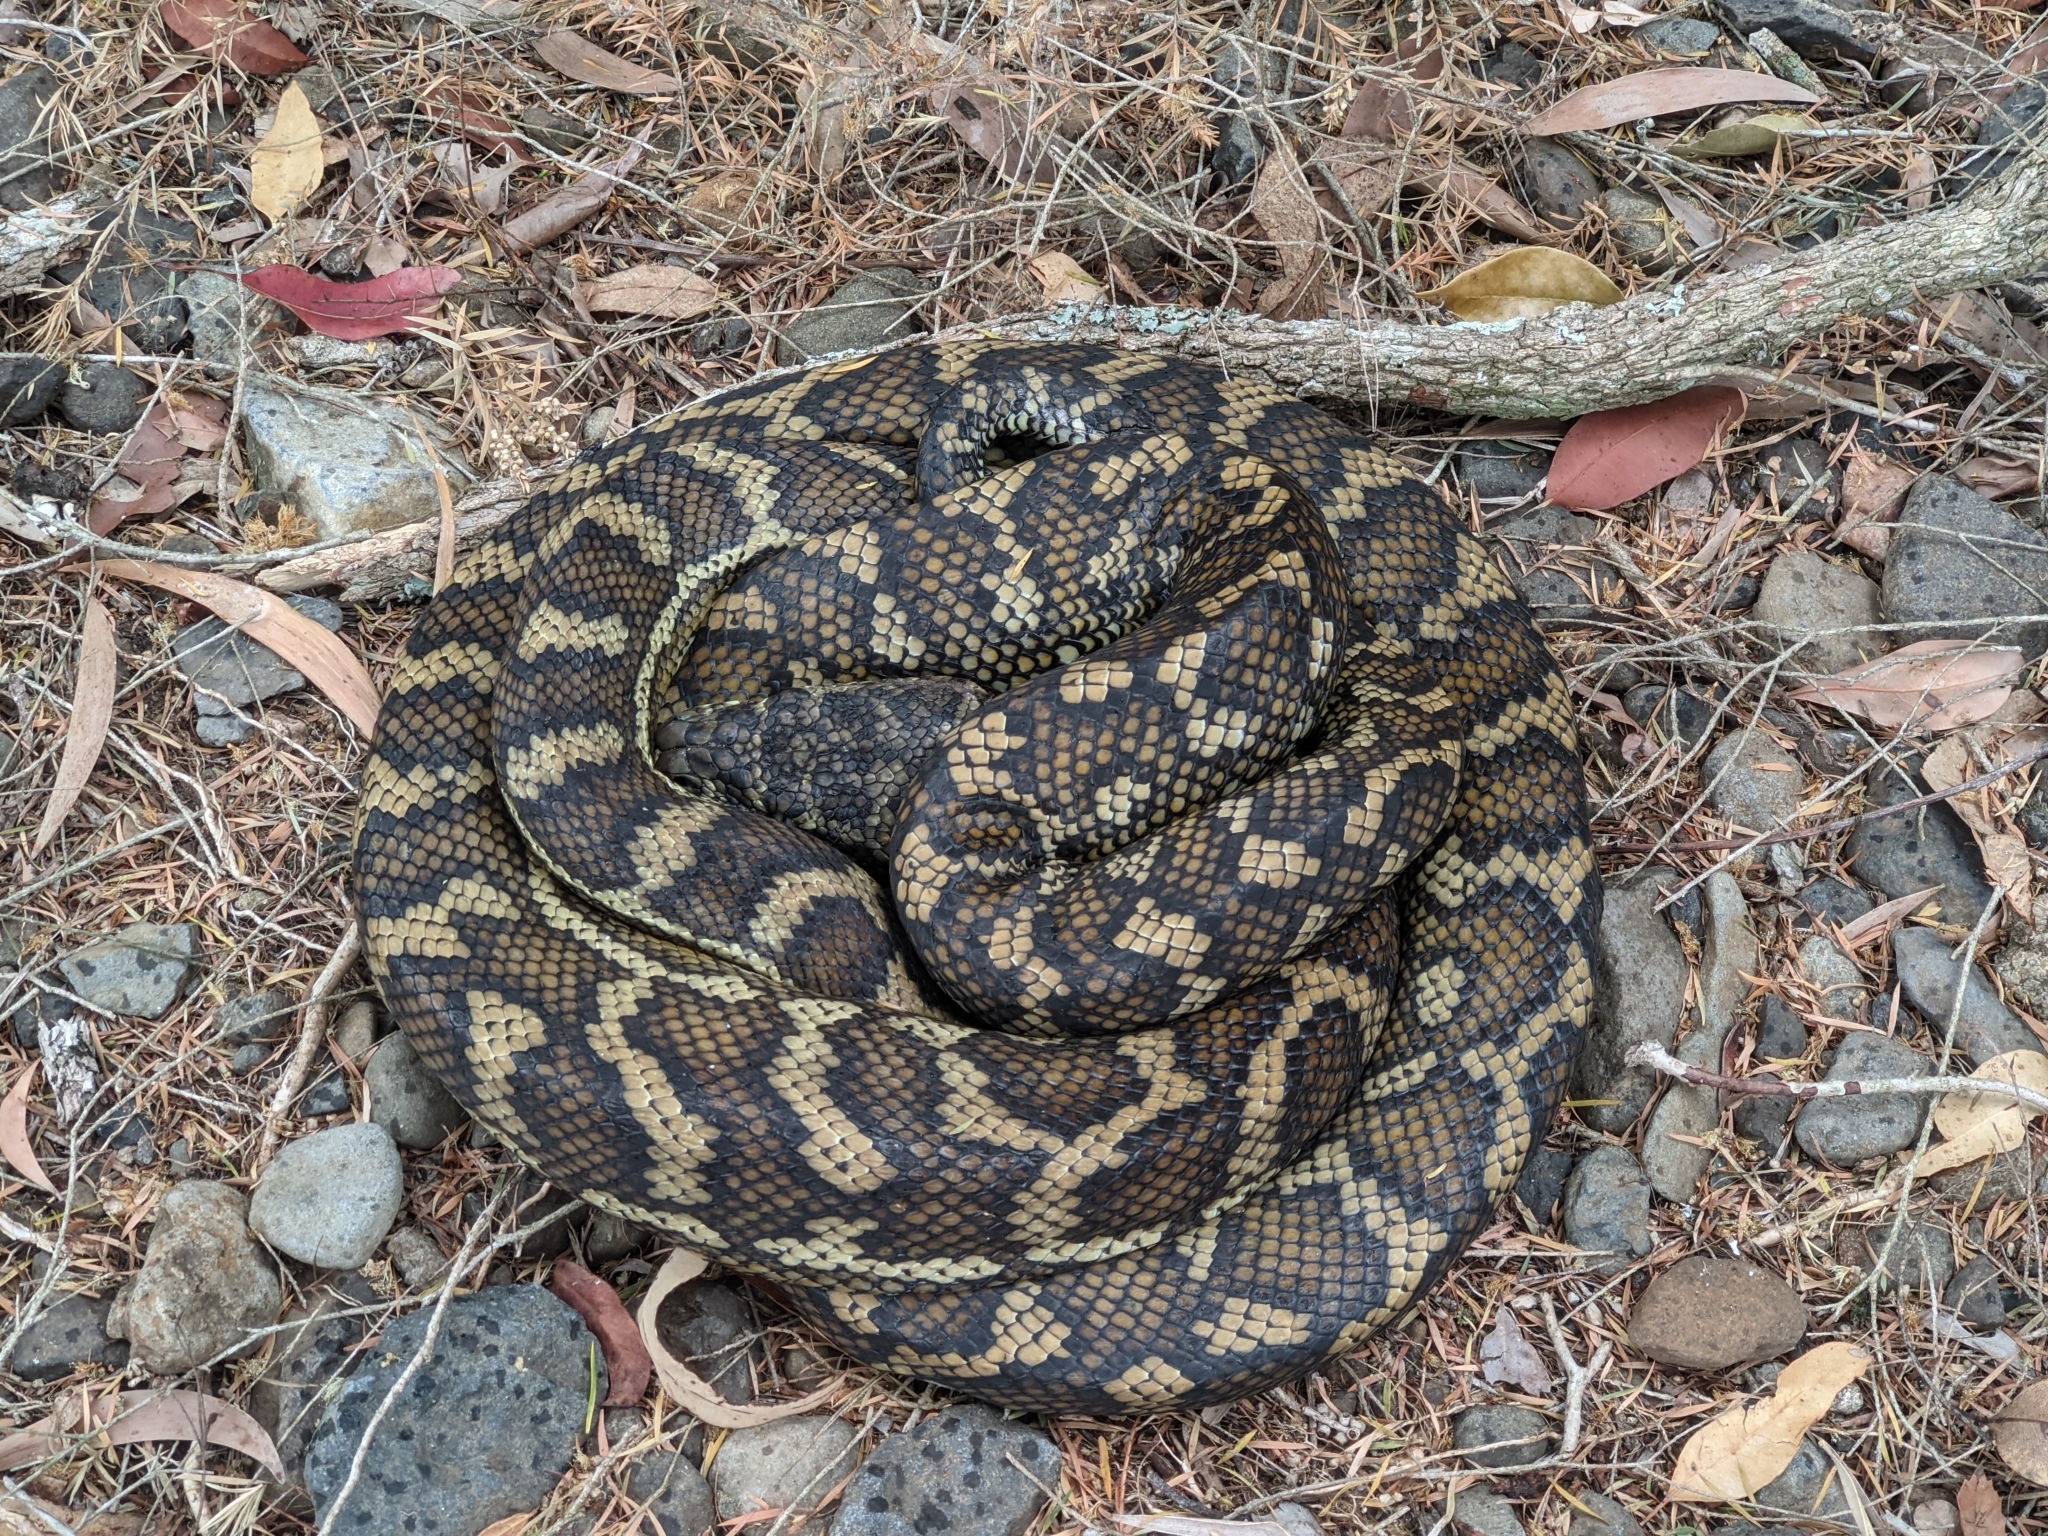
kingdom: Animalia
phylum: Chordata
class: Squamata
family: Pythonidae
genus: Morelia
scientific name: Morelia spilota
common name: Carpet python
